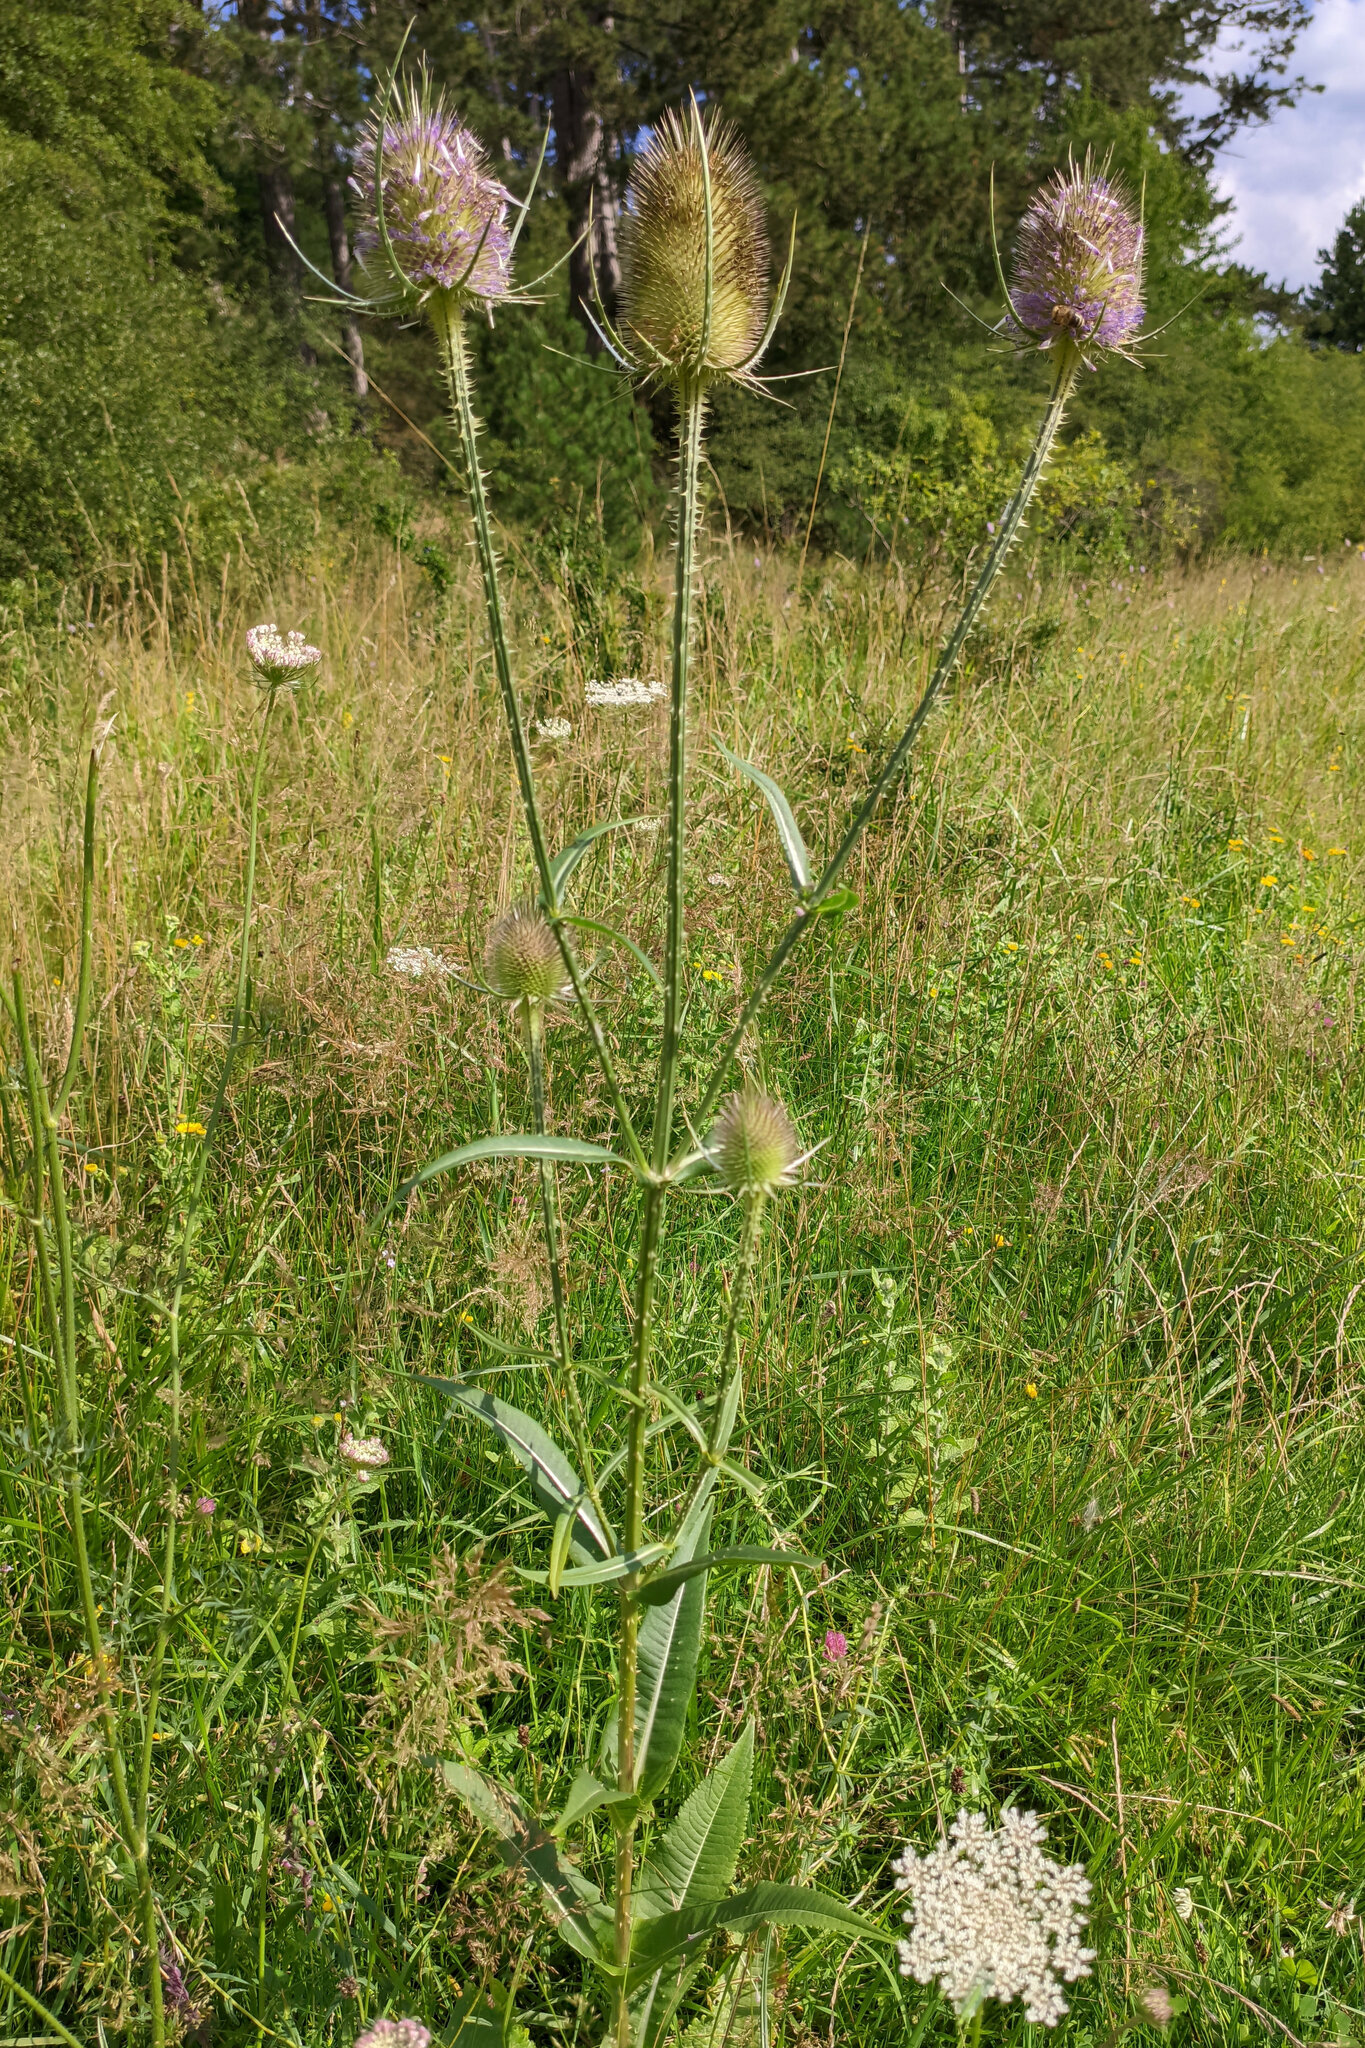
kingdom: Plantae
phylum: Tracheophyta
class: Magnoliopsida
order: Dipsacales
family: Caprifoliaceae
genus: Dipsacus
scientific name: Dipsacus fullonum
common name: Teasel
